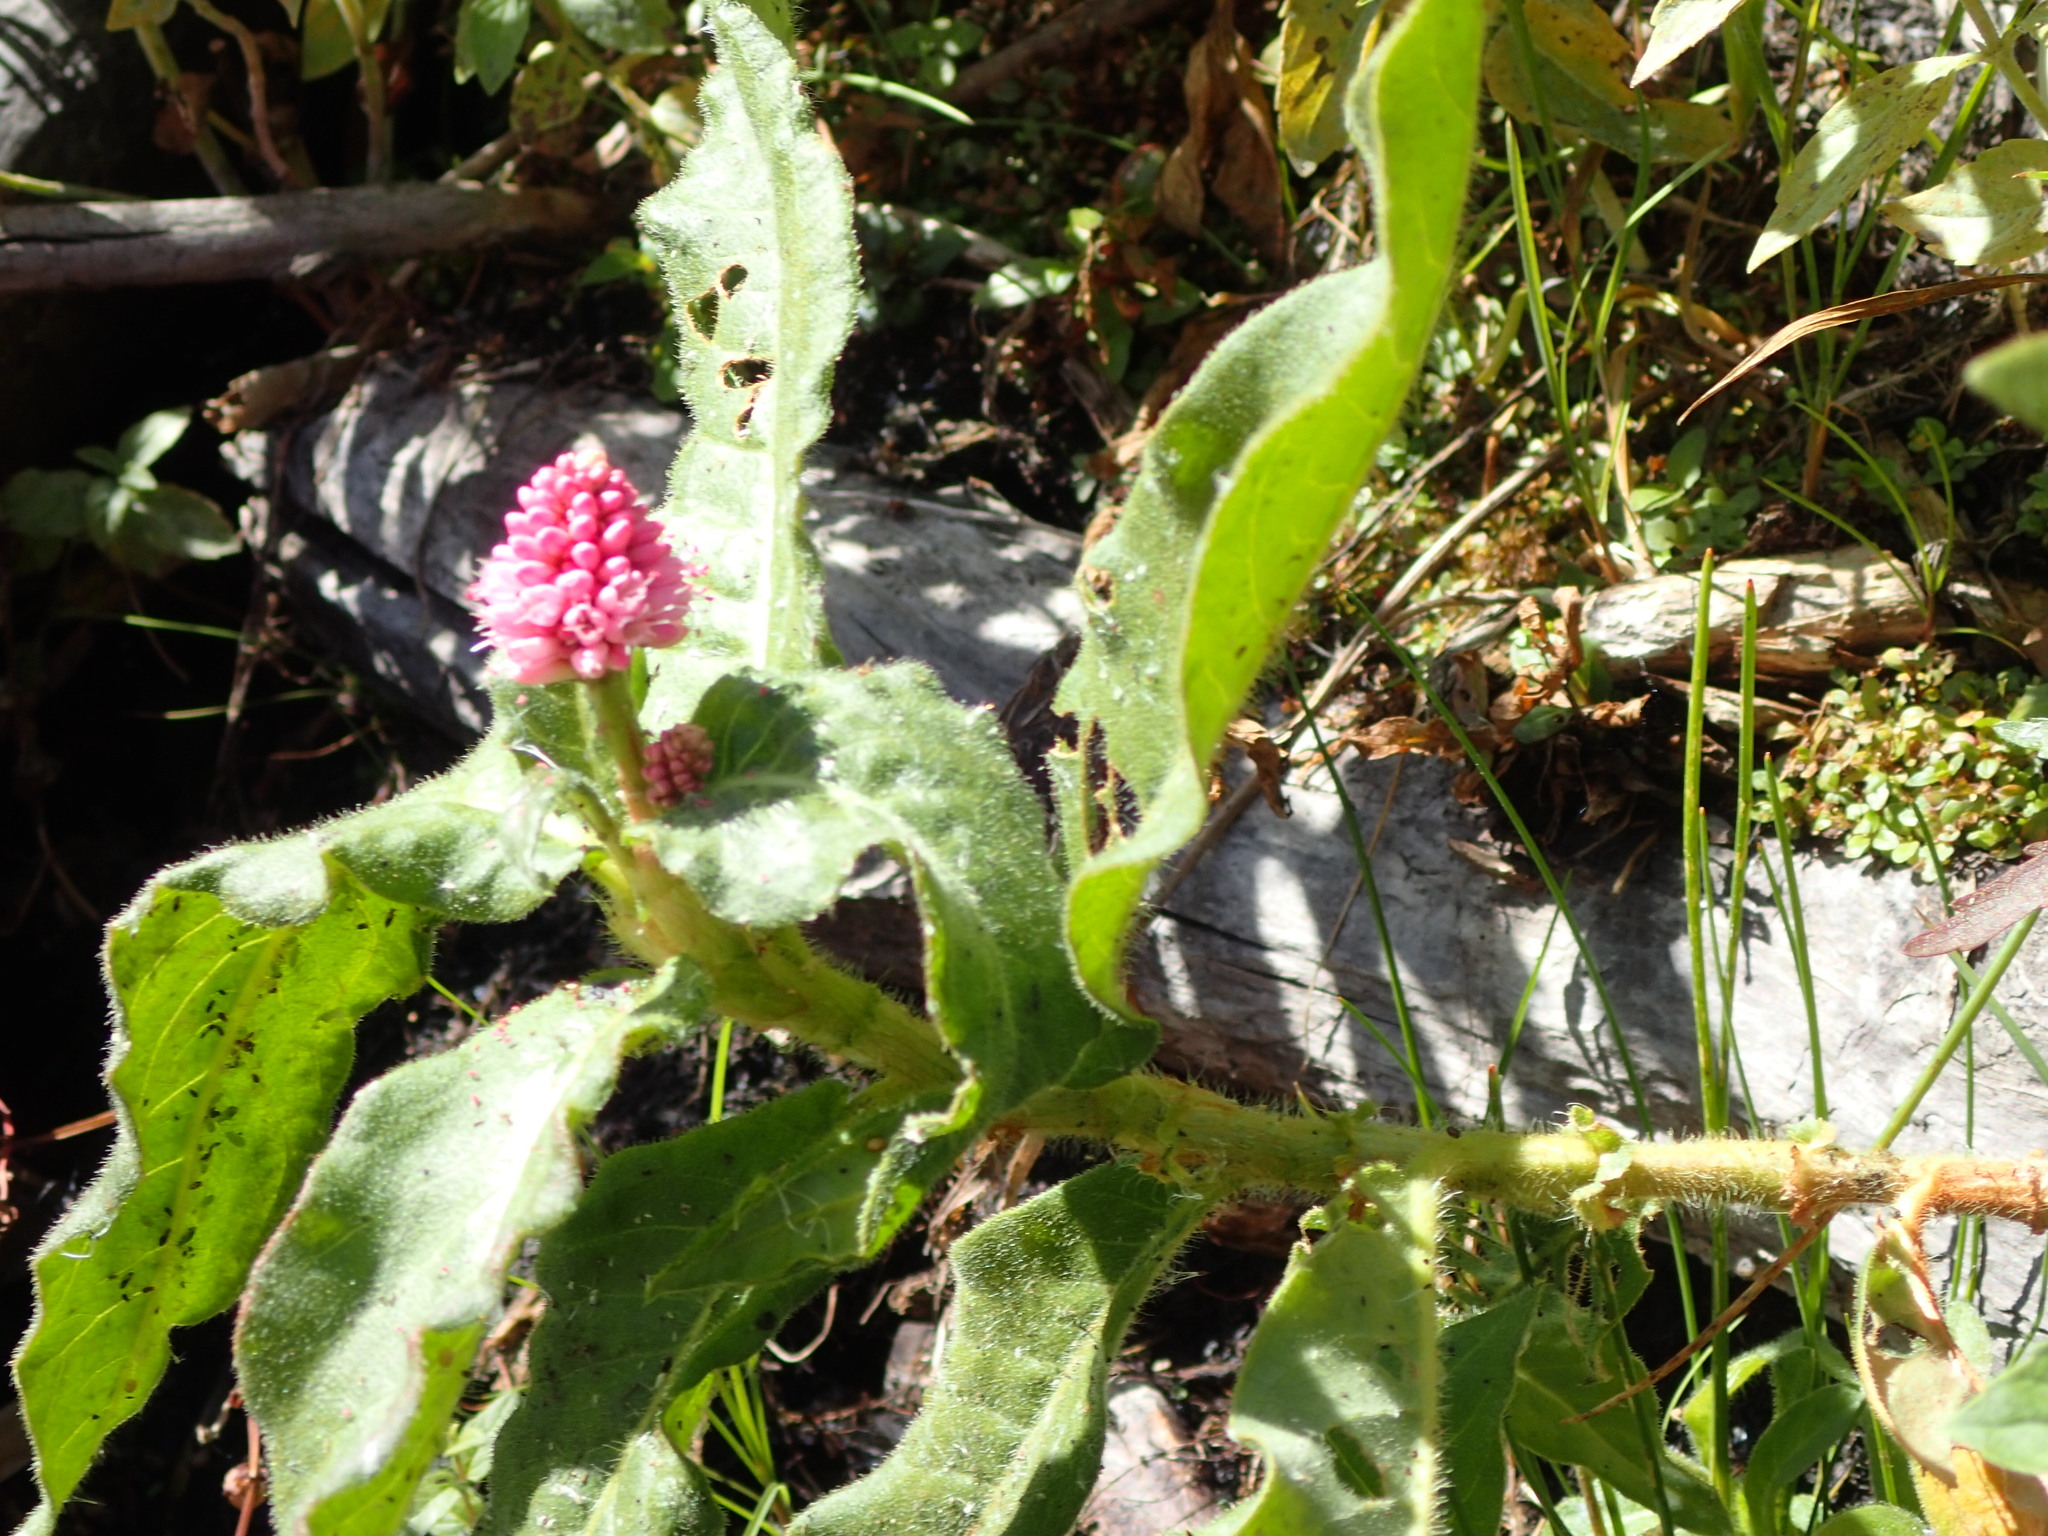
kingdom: Plantae
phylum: Tracheophyta
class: Magnoliopsida
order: Caryophyllales
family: Polygonaceae
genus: Persicaria
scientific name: Persicaria amphibia
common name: Amphibious bistort
